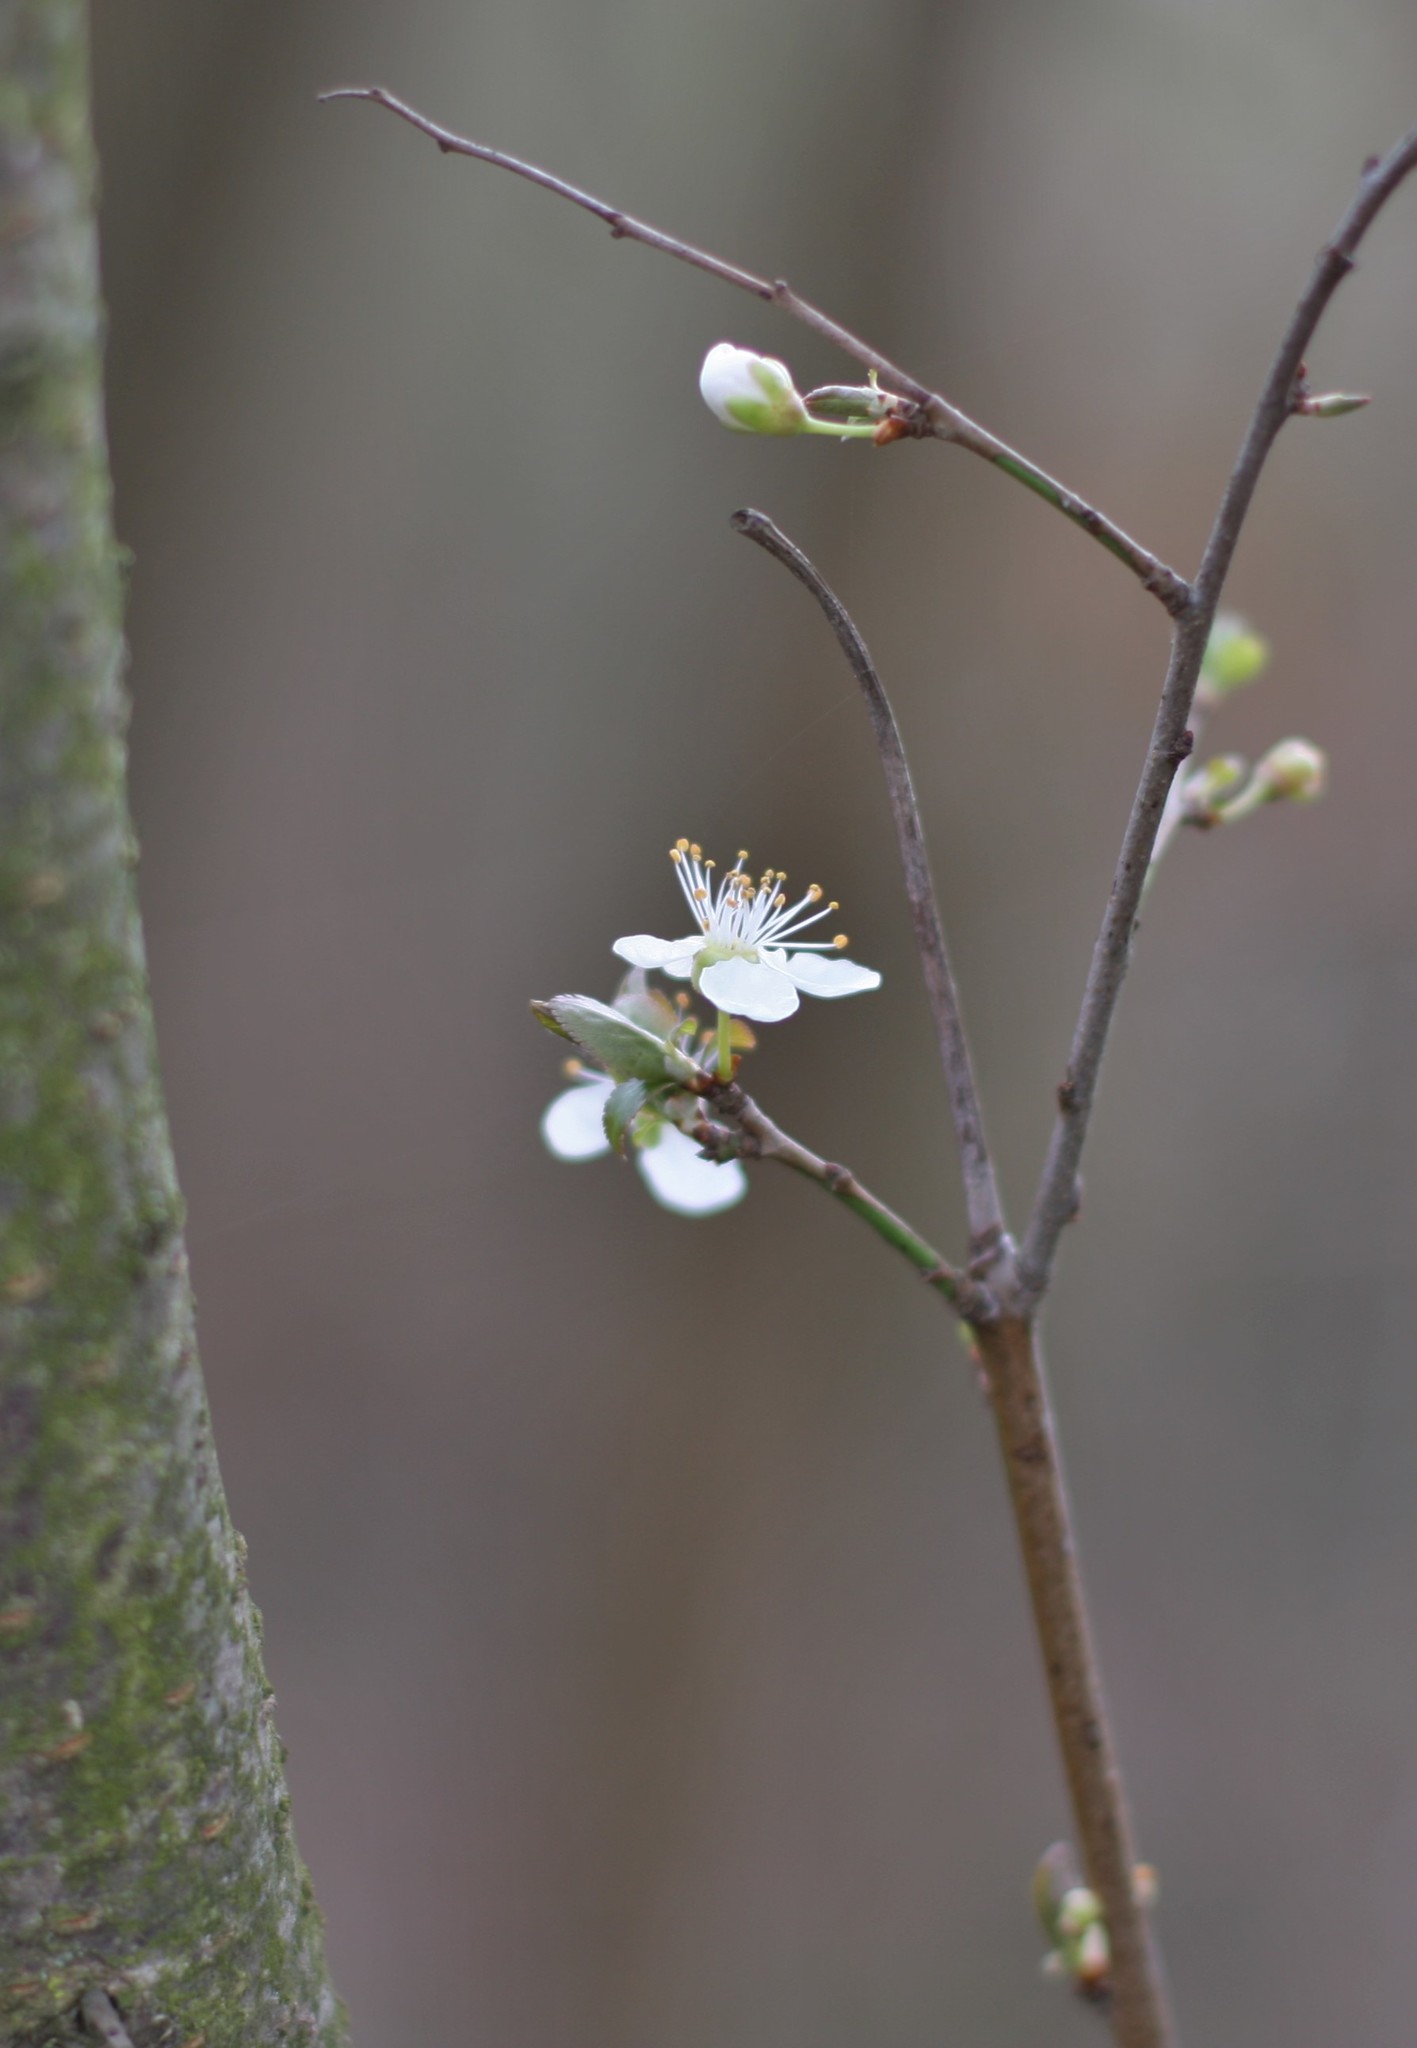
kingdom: Plantae
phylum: Tracheophyta
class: Magnoliopsida
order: Rosales
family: Rosaceae
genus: Prunus
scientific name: Prunus cerasifera
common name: Cherry plum
